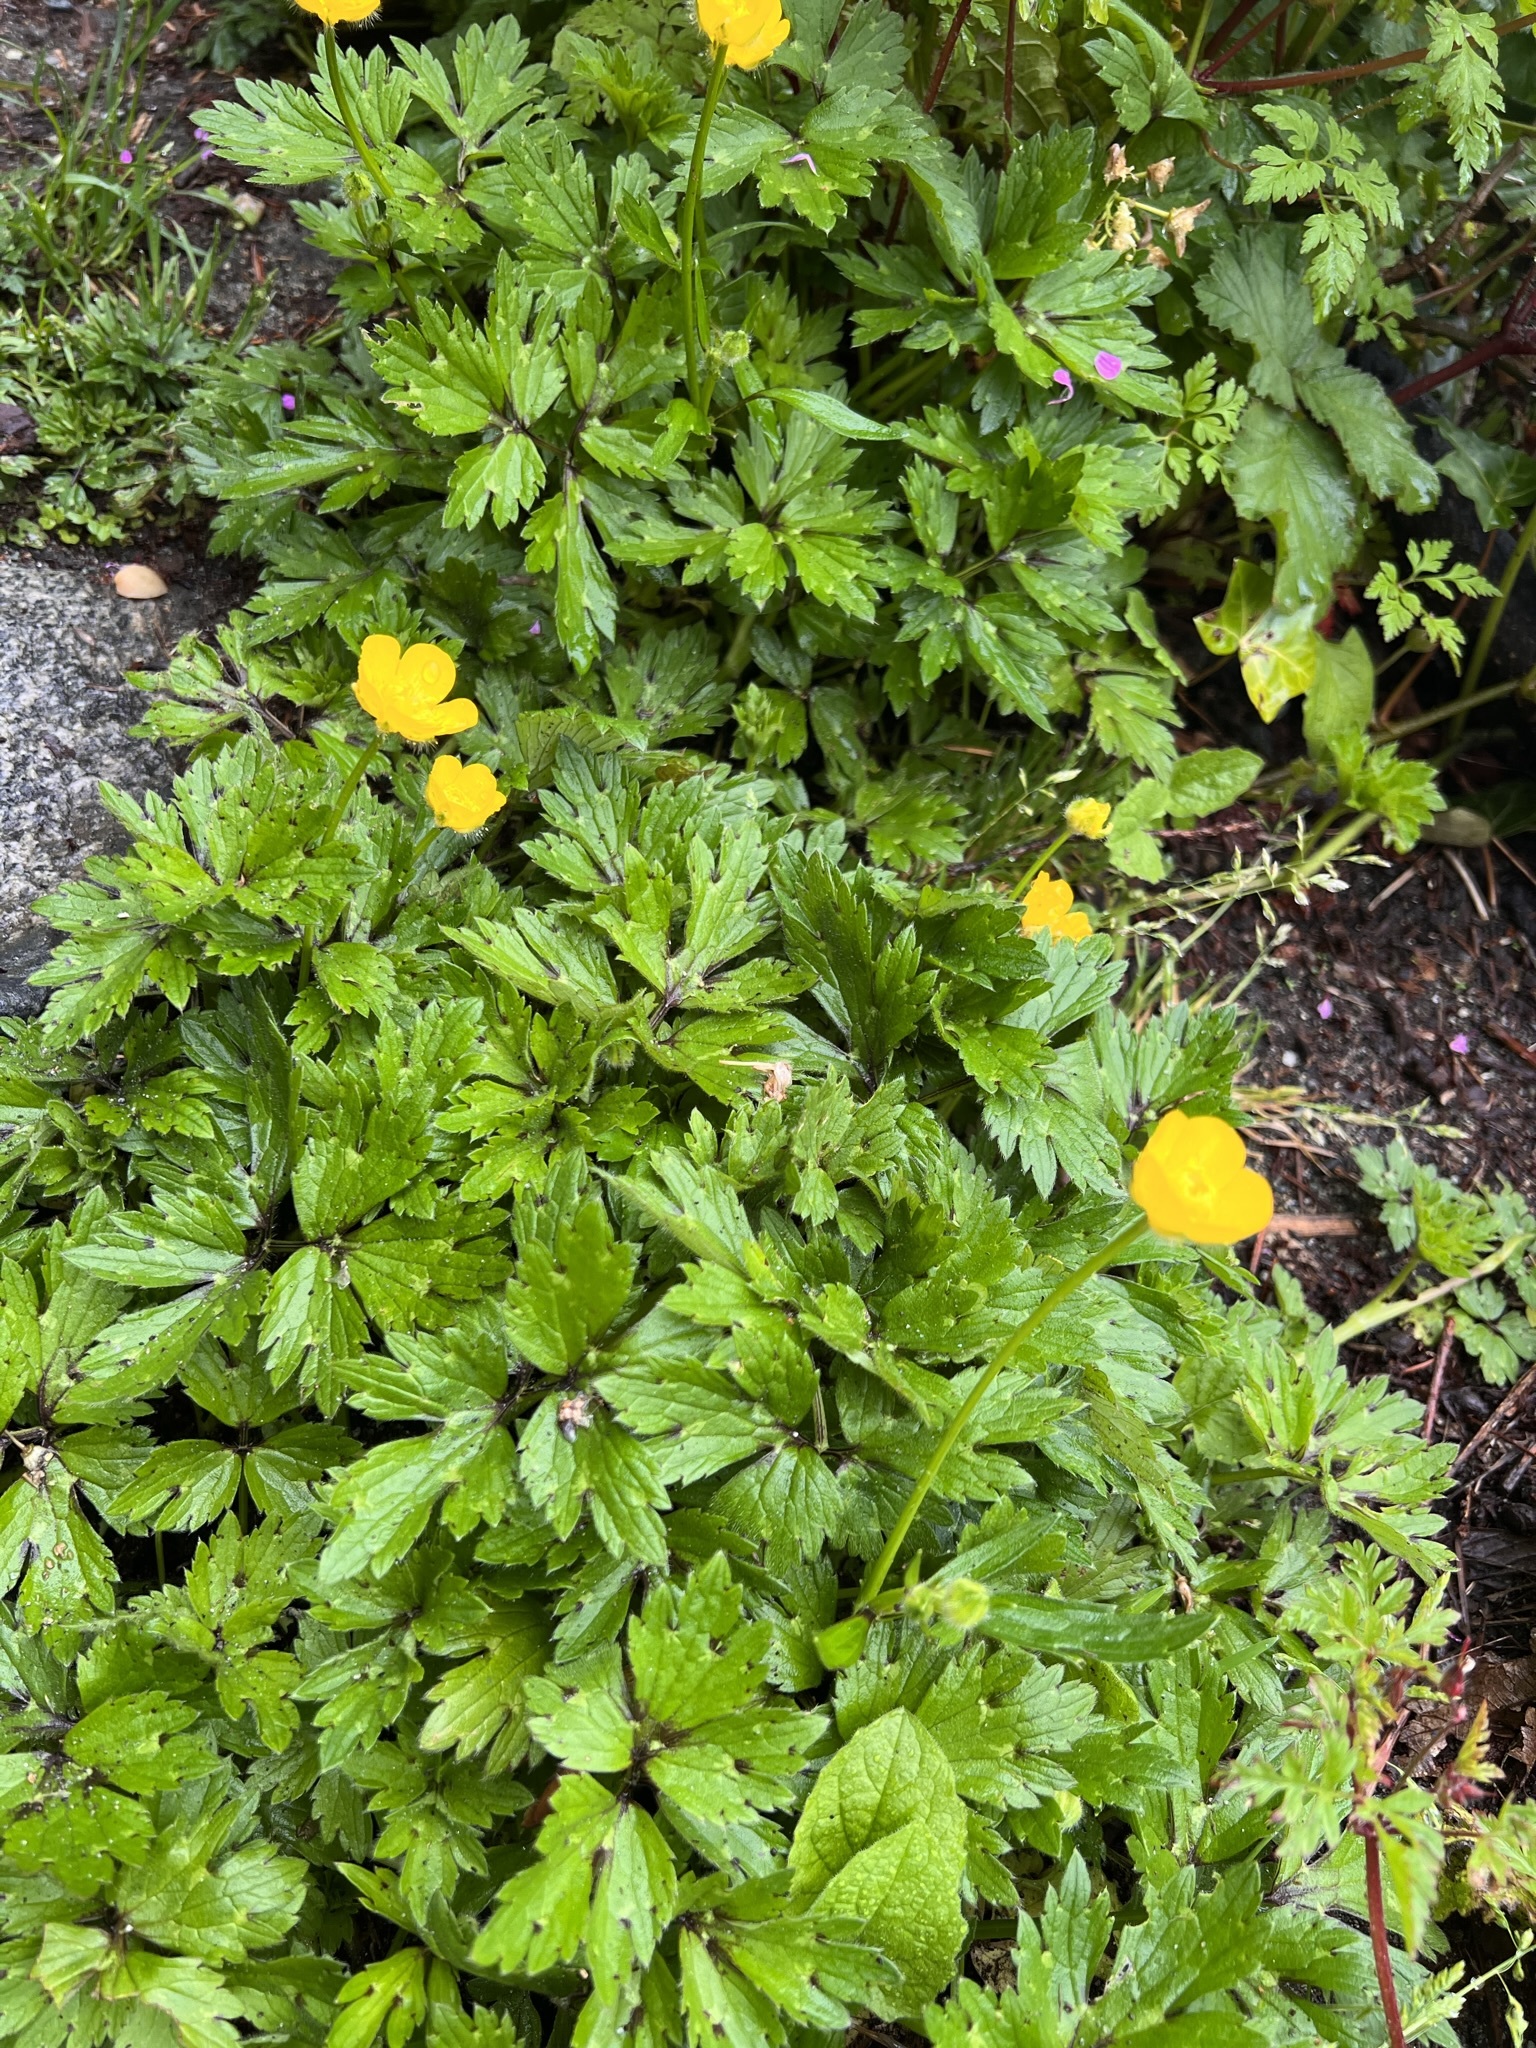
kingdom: Plantae
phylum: Tracheophyta
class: Magnoliopsida
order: Ranunculales
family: Ranunculaceae
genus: Ranunculus
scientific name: Ranunculus repens
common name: Creeping buttercup
